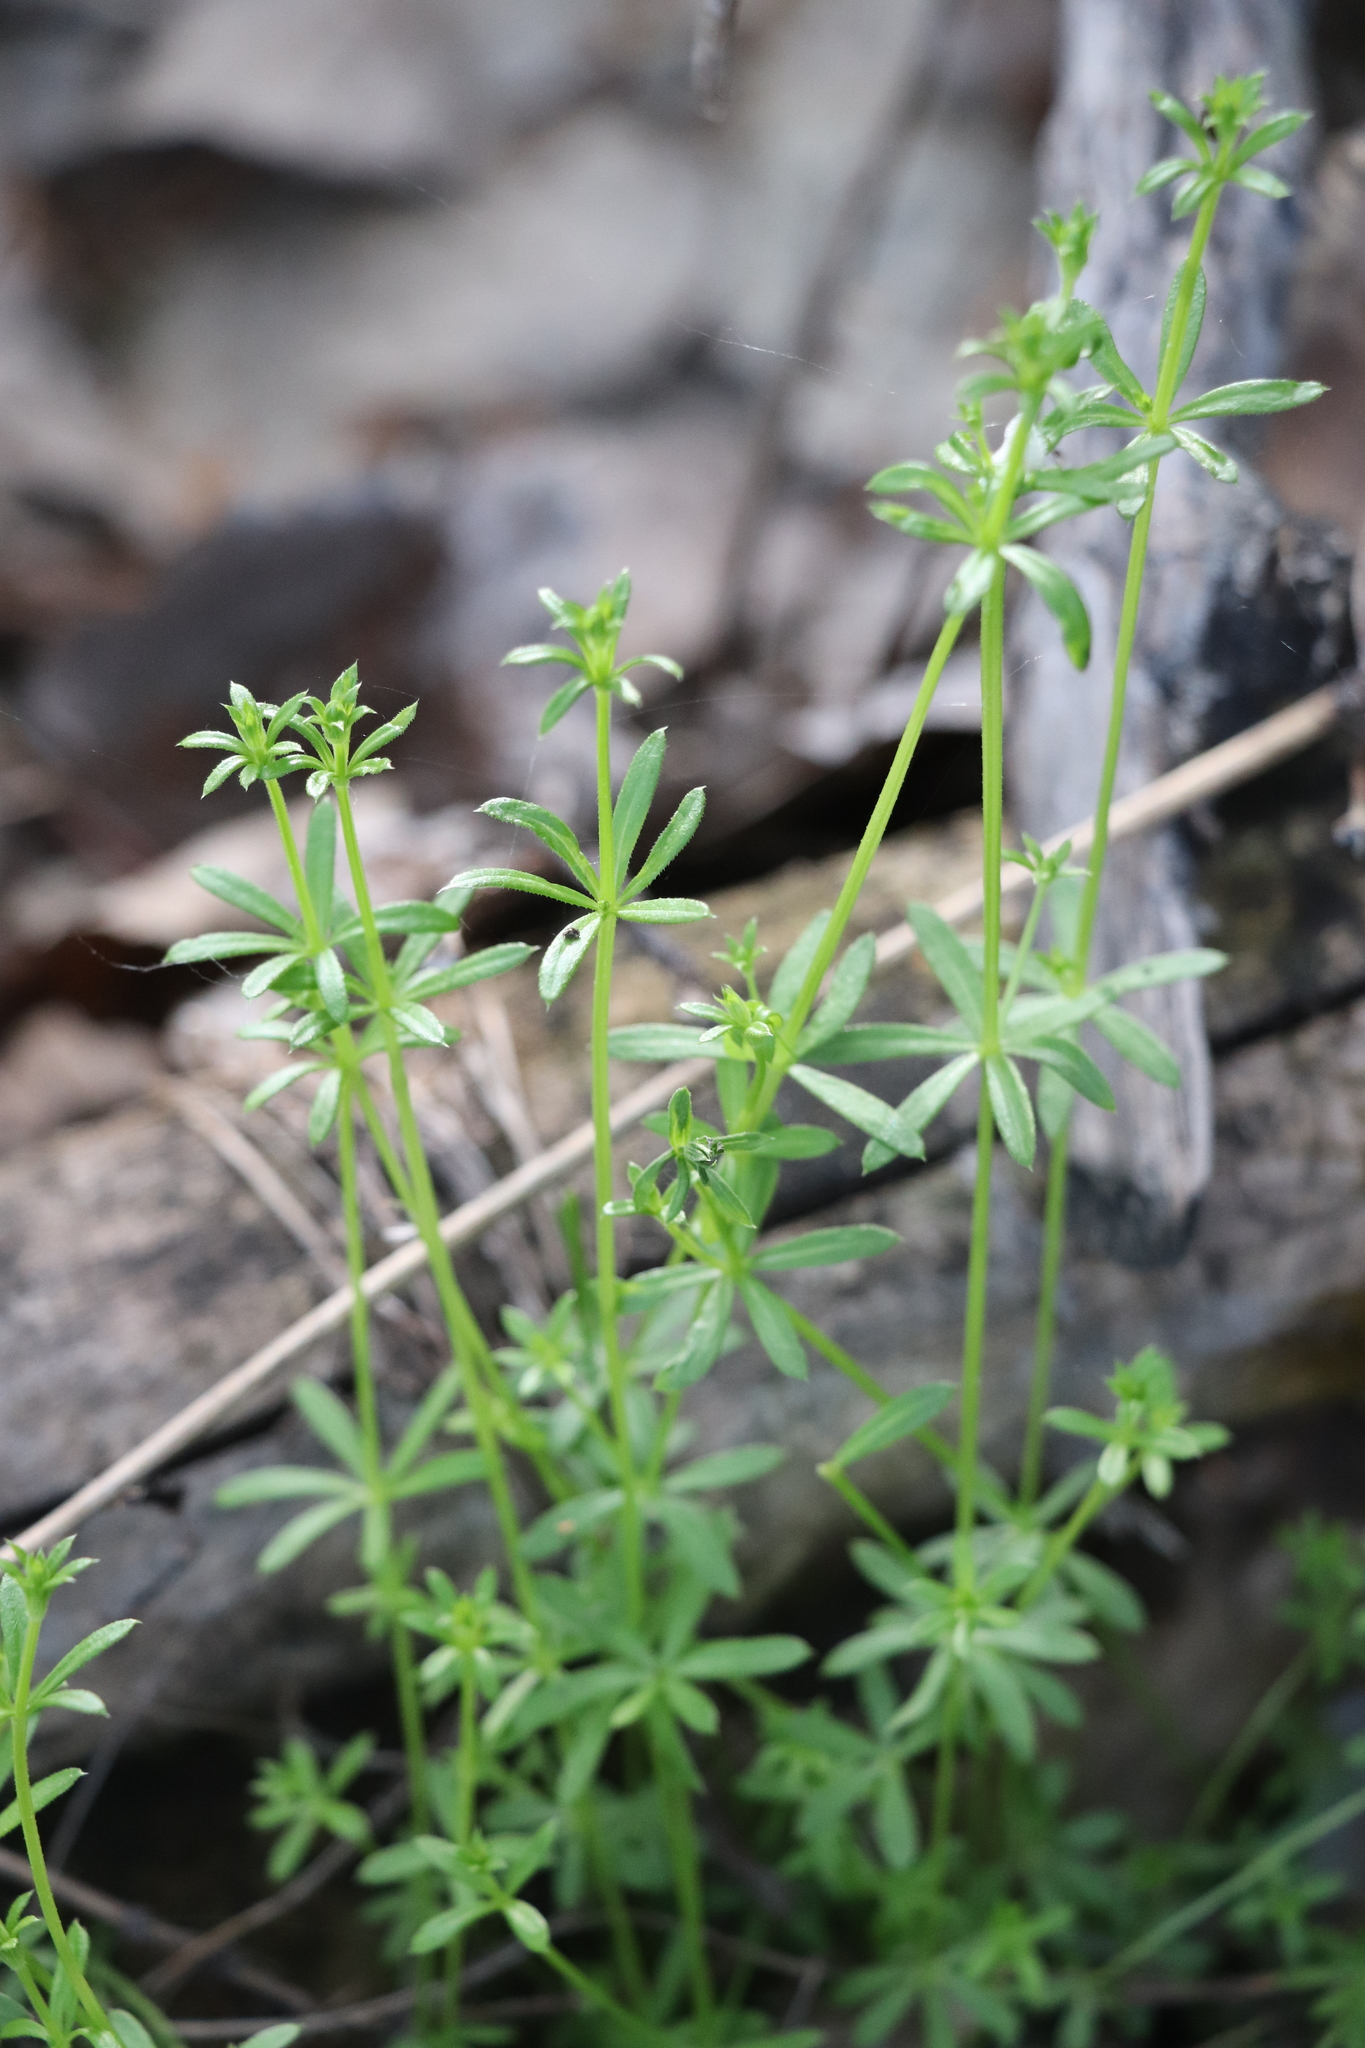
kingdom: Plantae
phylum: Tracheophyta
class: Magnoliopsida
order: Gentianales
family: Rubiaceae
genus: Galium
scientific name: Galium uliginosum
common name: Fen bedstraw
